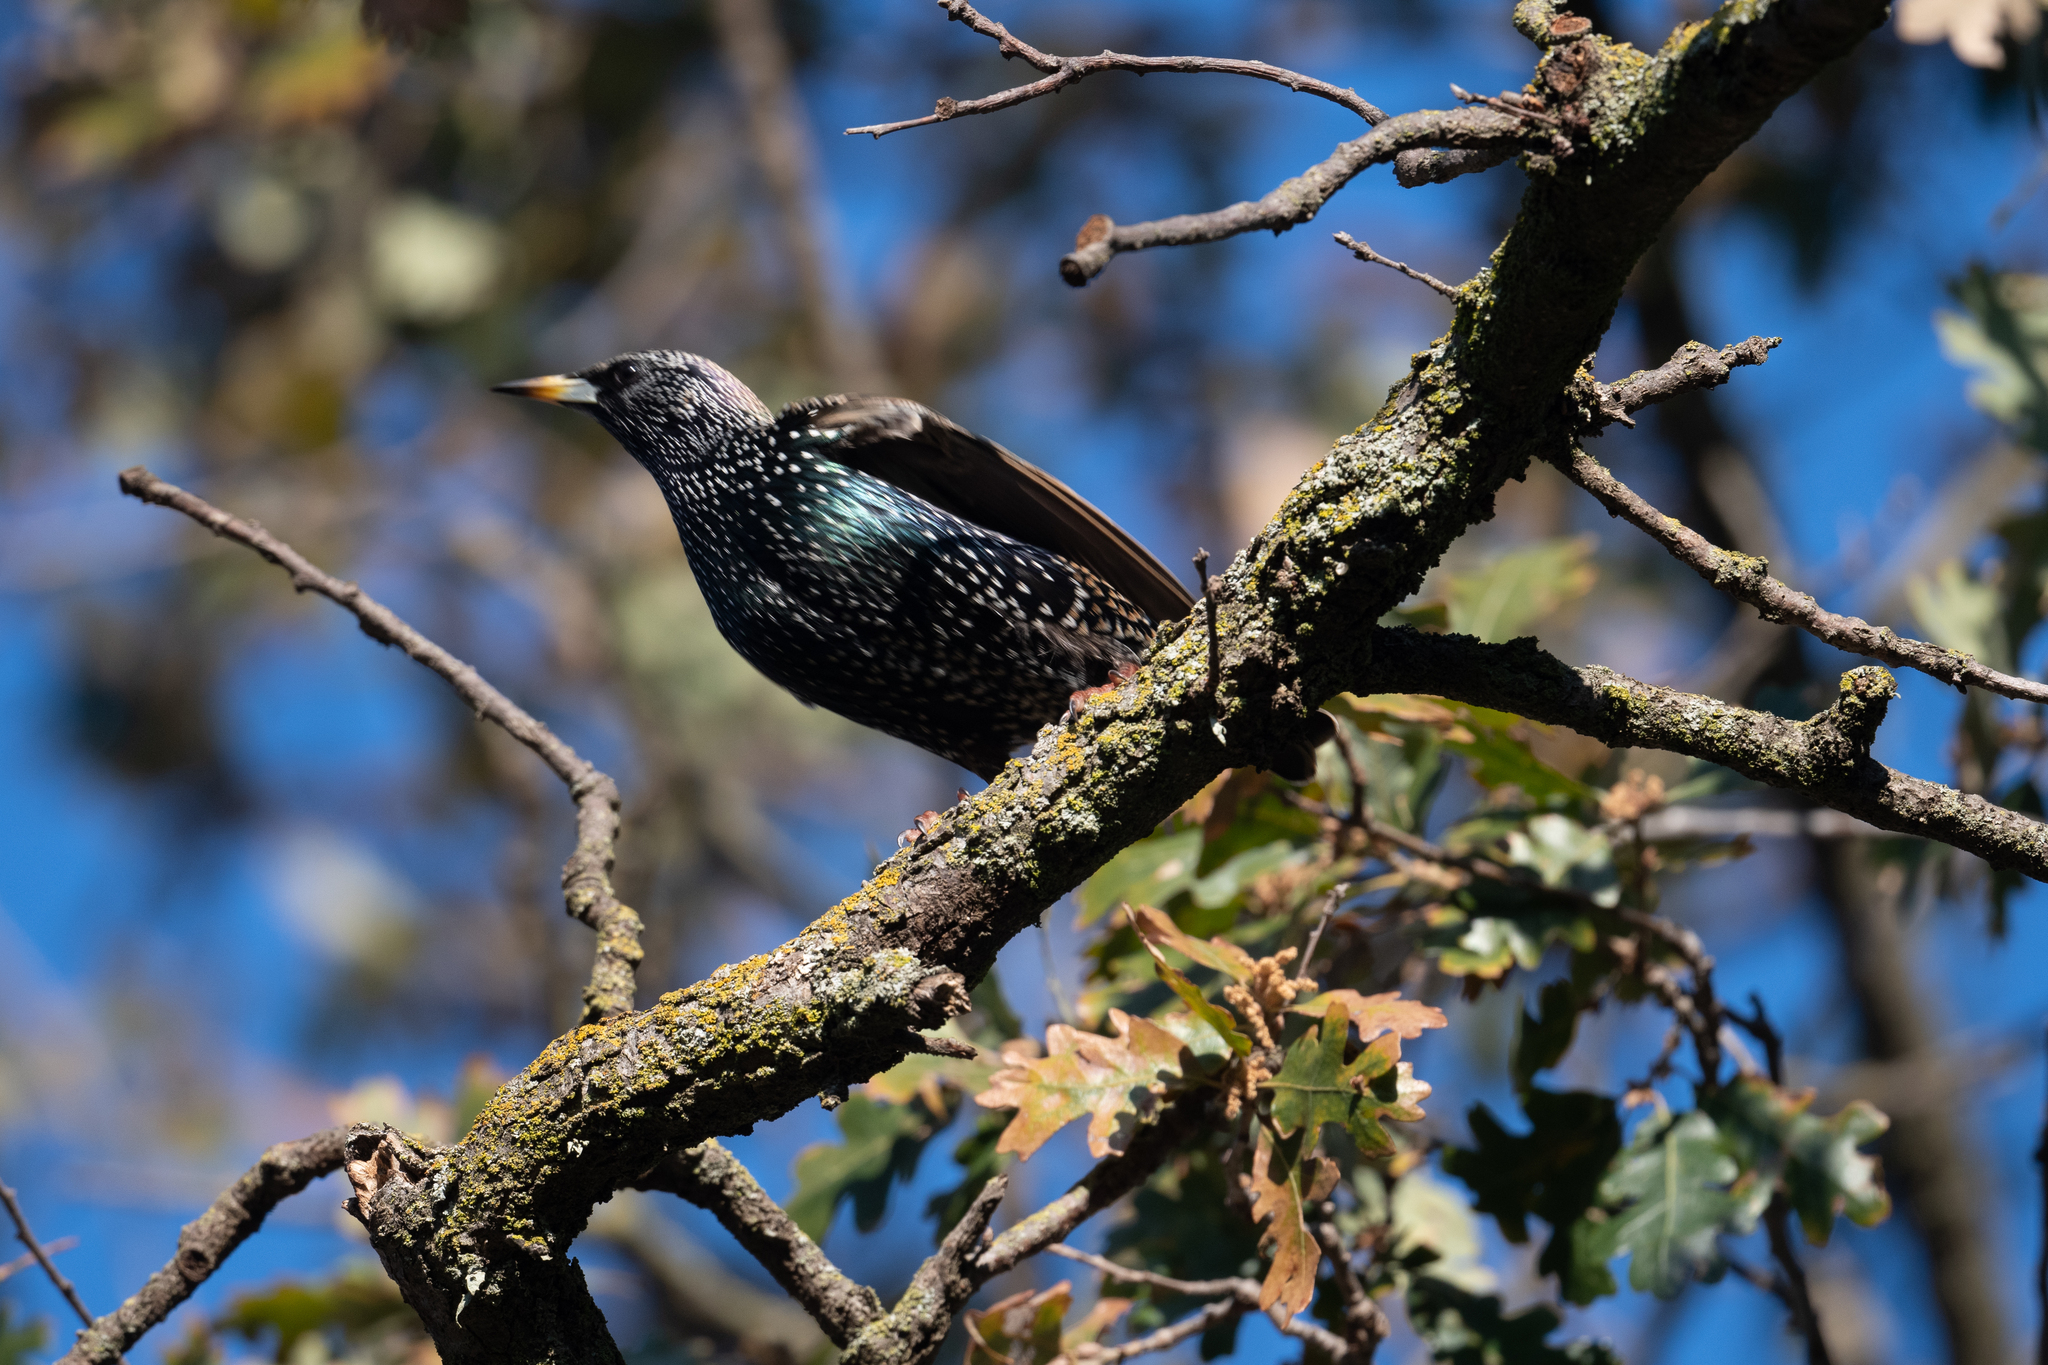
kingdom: Animalia
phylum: Chordata
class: Aves
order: Passeriformes
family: Sturnidae
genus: Sturnus
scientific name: Sturnus vulgaris
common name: Common starling
